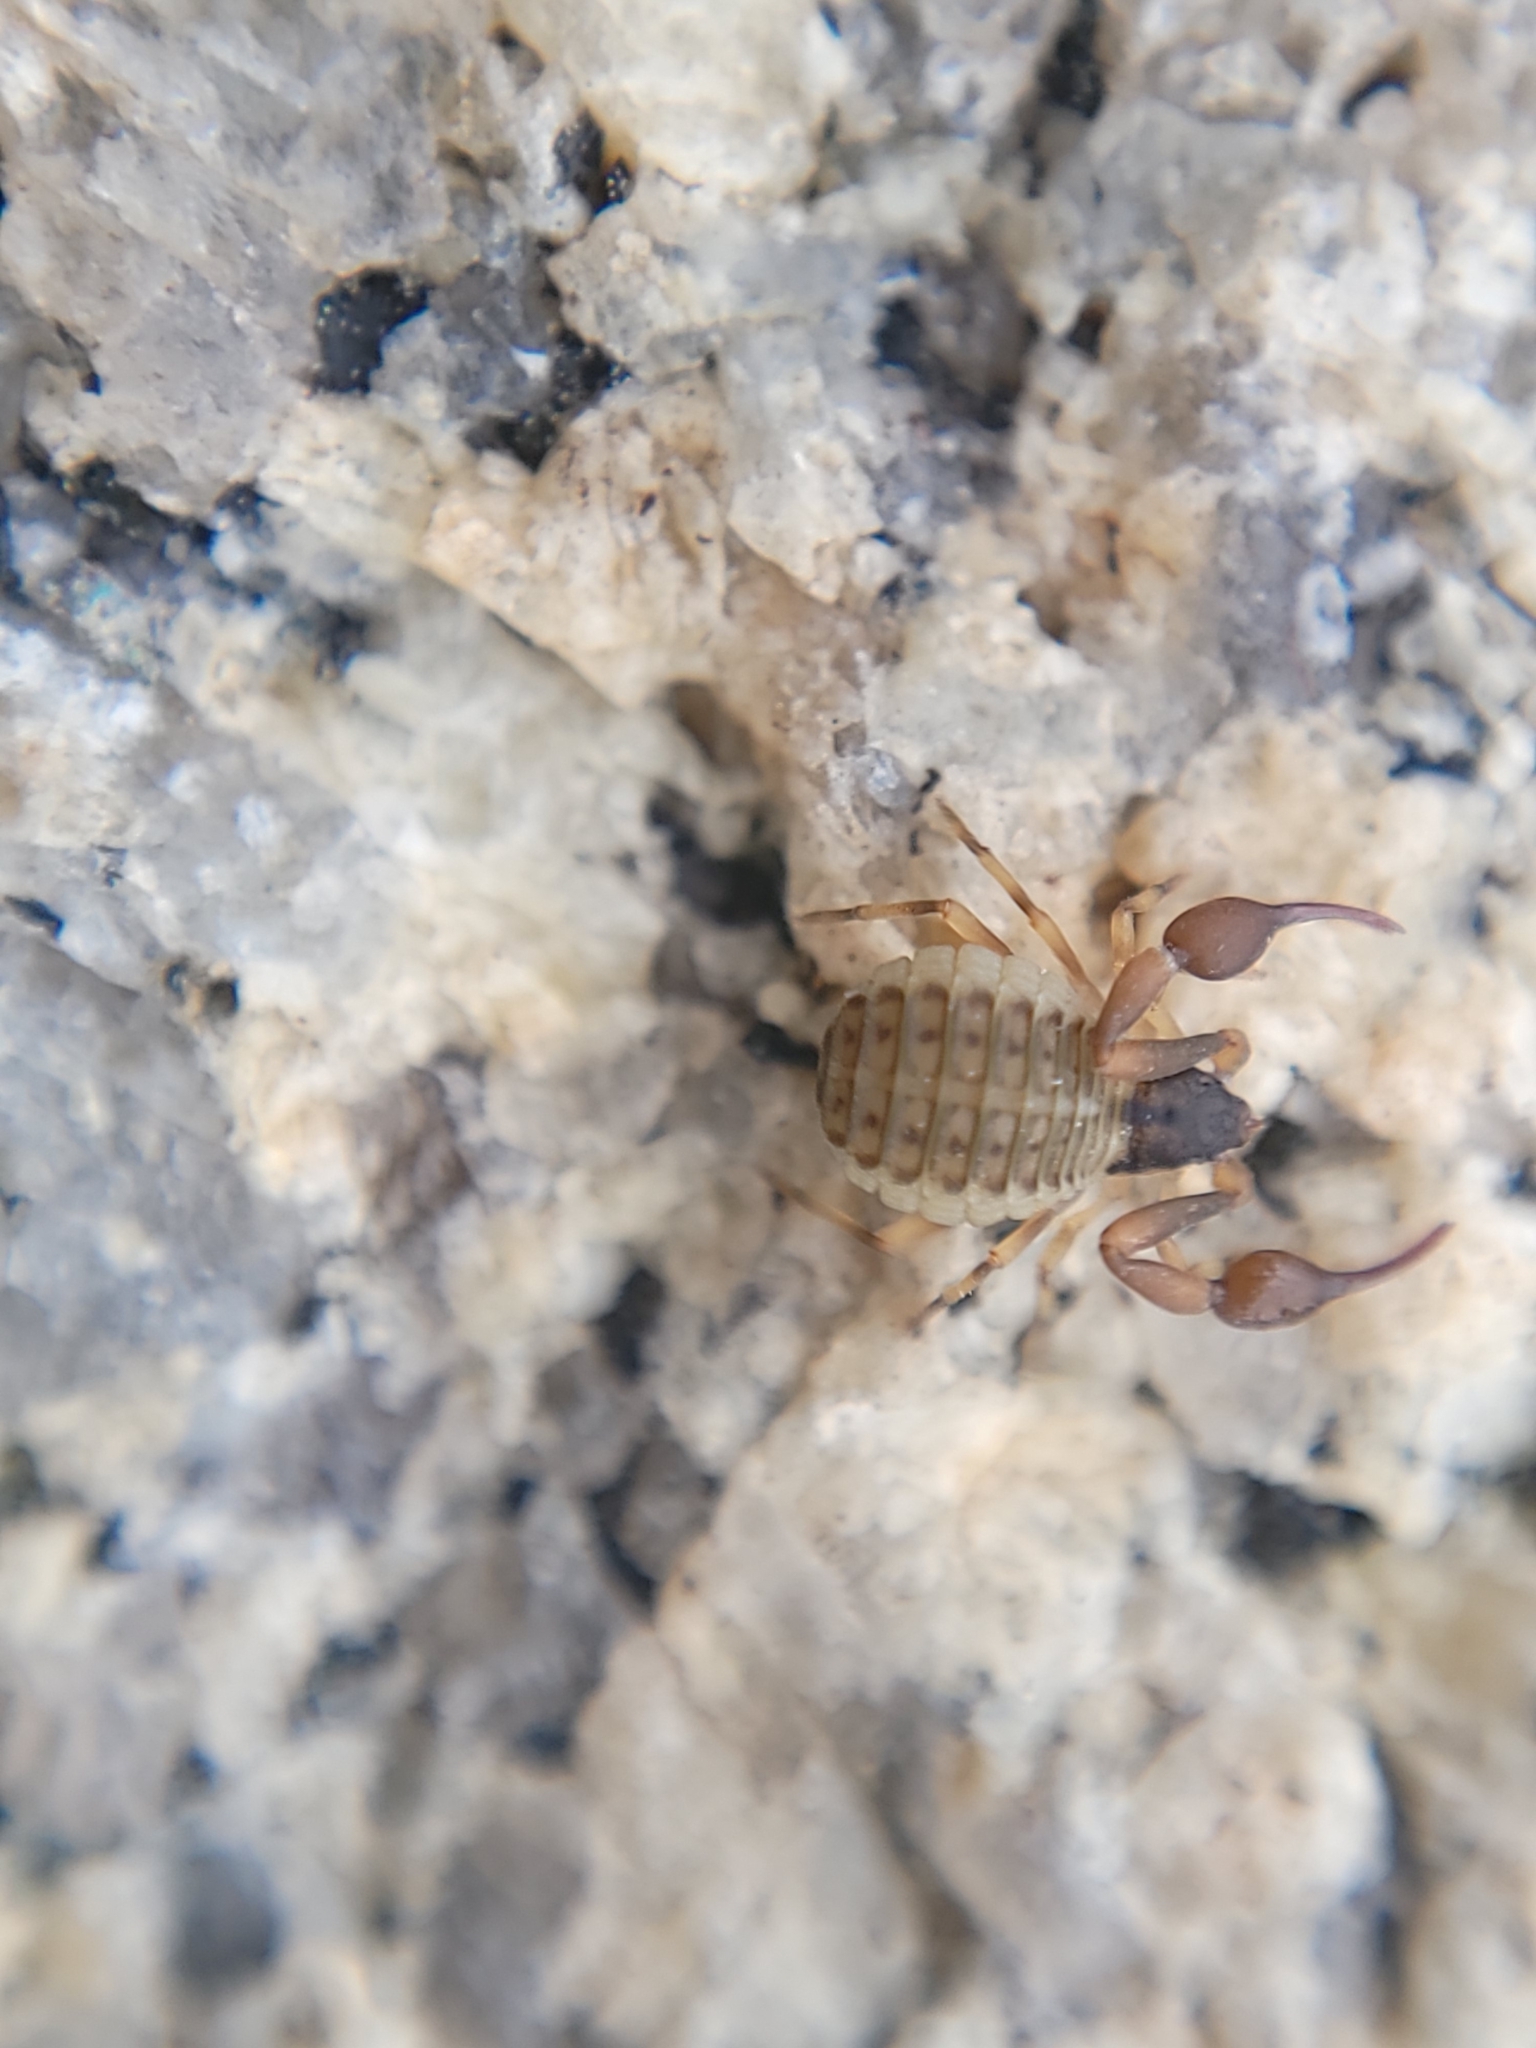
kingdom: Animalia
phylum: Arthropoda
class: Arachnida
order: Pseudoscorpiones
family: Garypidae
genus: Anchigarypus
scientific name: Anchigarypus californicus
